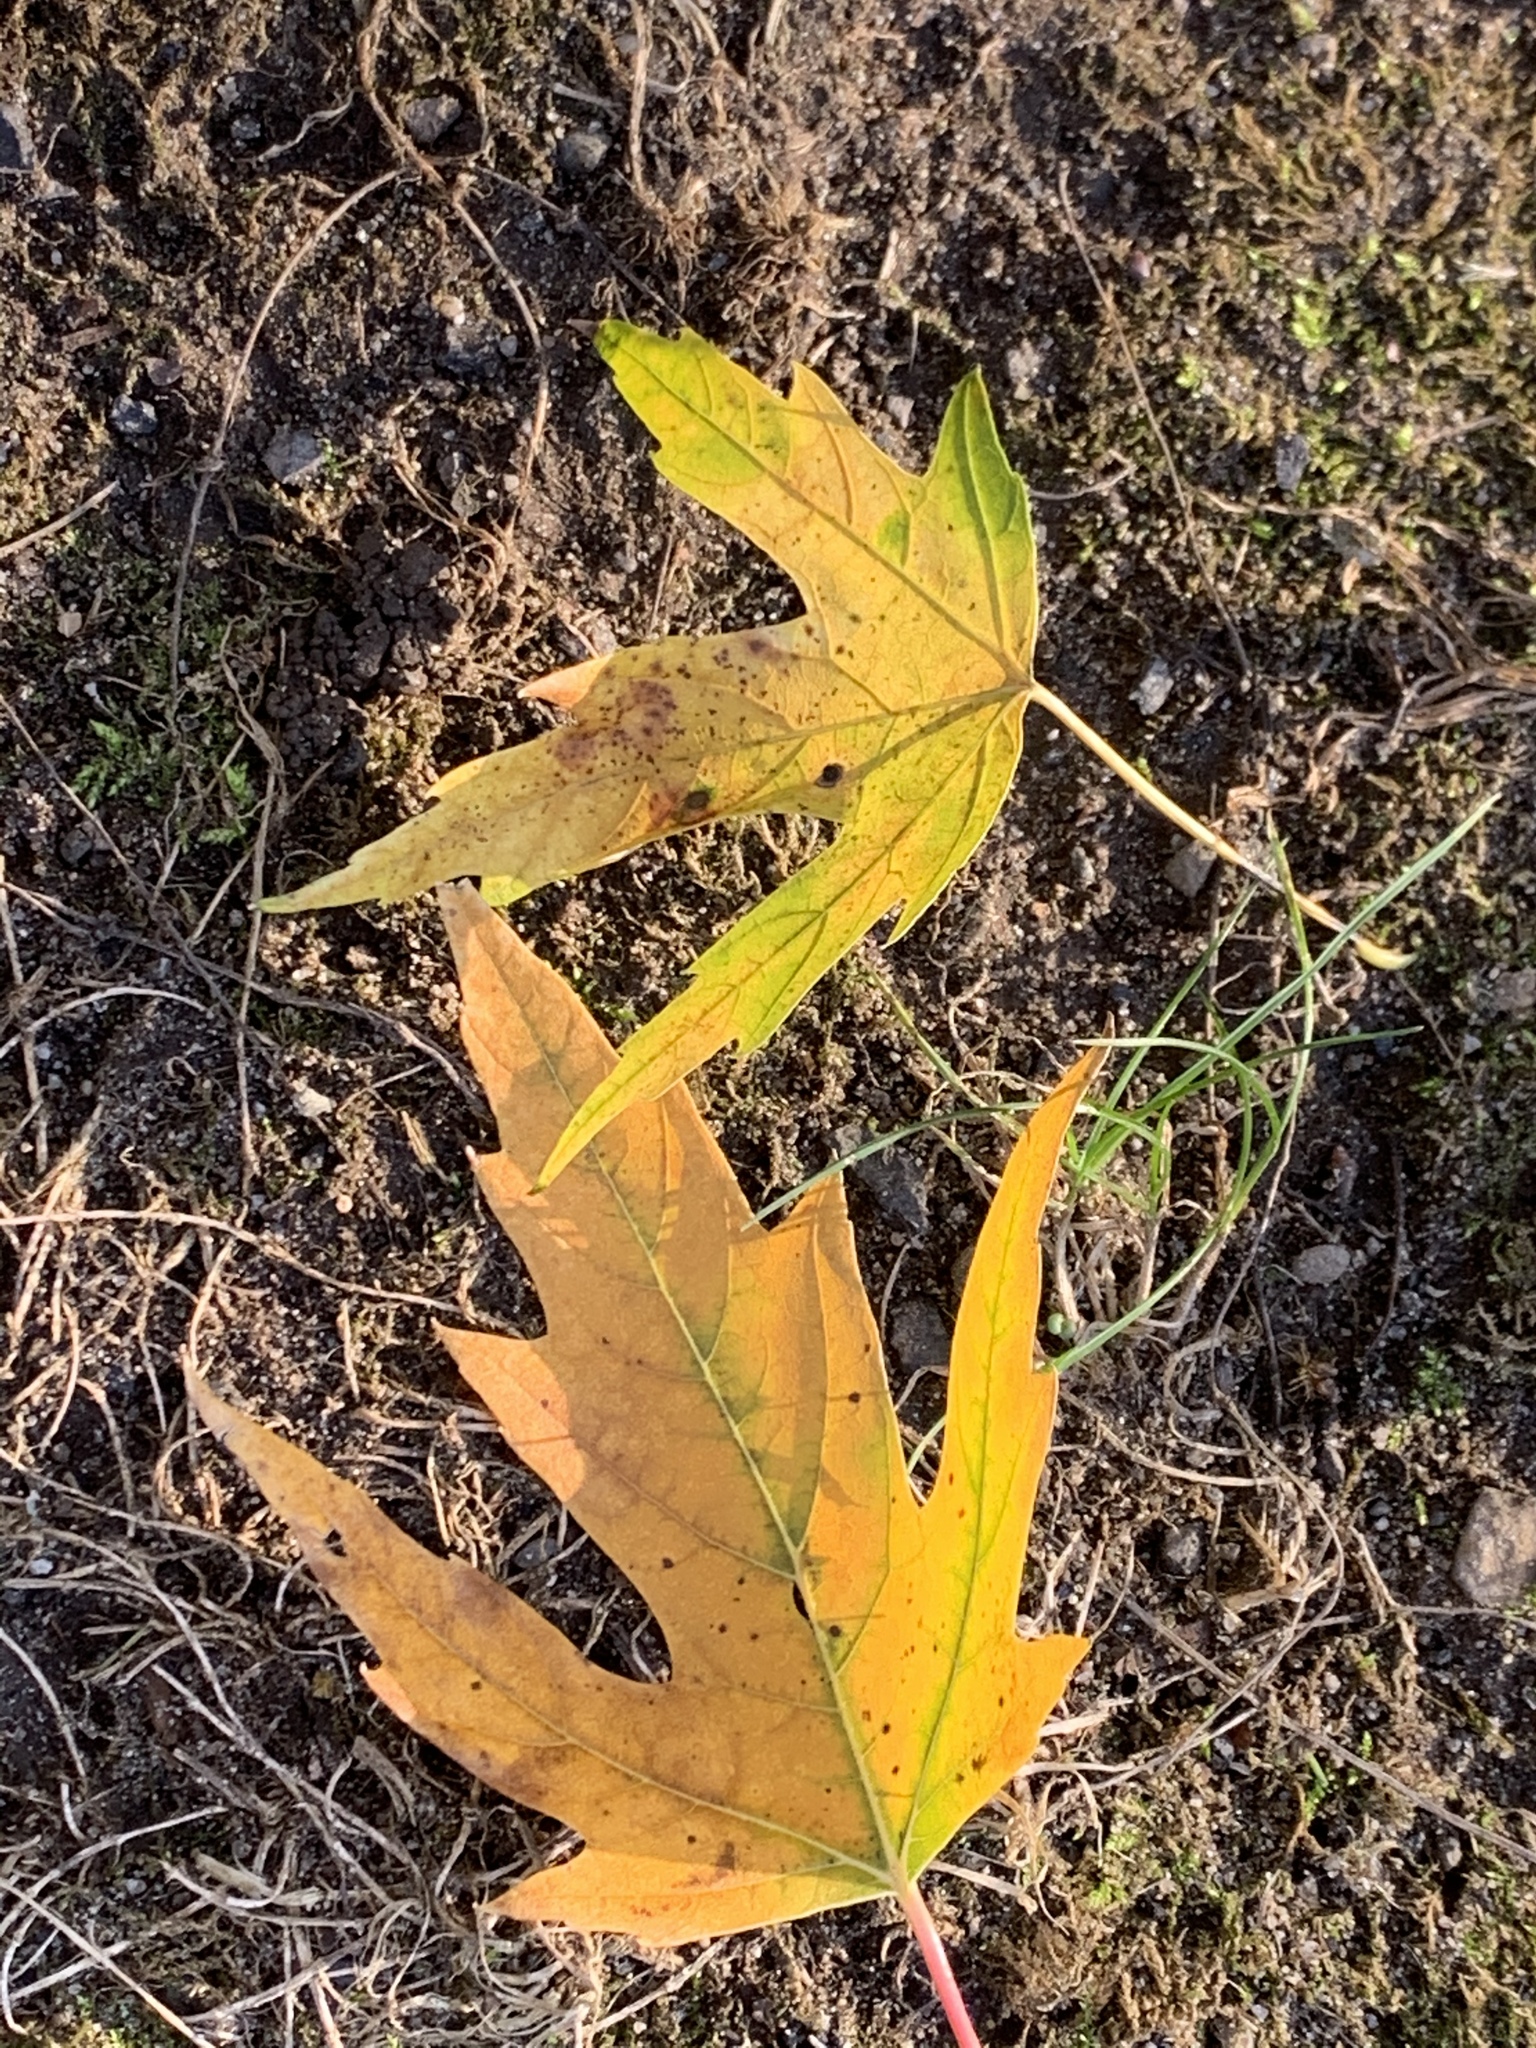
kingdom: Plantae
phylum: Tracheophyta
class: Magnoliopsida
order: Sapindales
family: Sapindaceae
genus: Acer
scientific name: Acer saccharinum
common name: Silver maple
